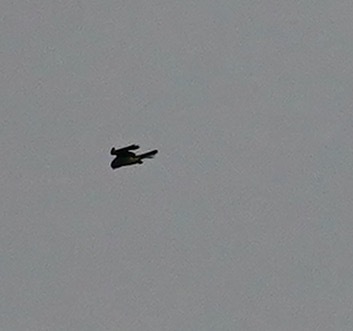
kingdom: Animalia
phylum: Chordata
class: Aves
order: Falconiformes
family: Falconidae
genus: Falco
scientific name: Falco sparverius
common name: American kestrel
